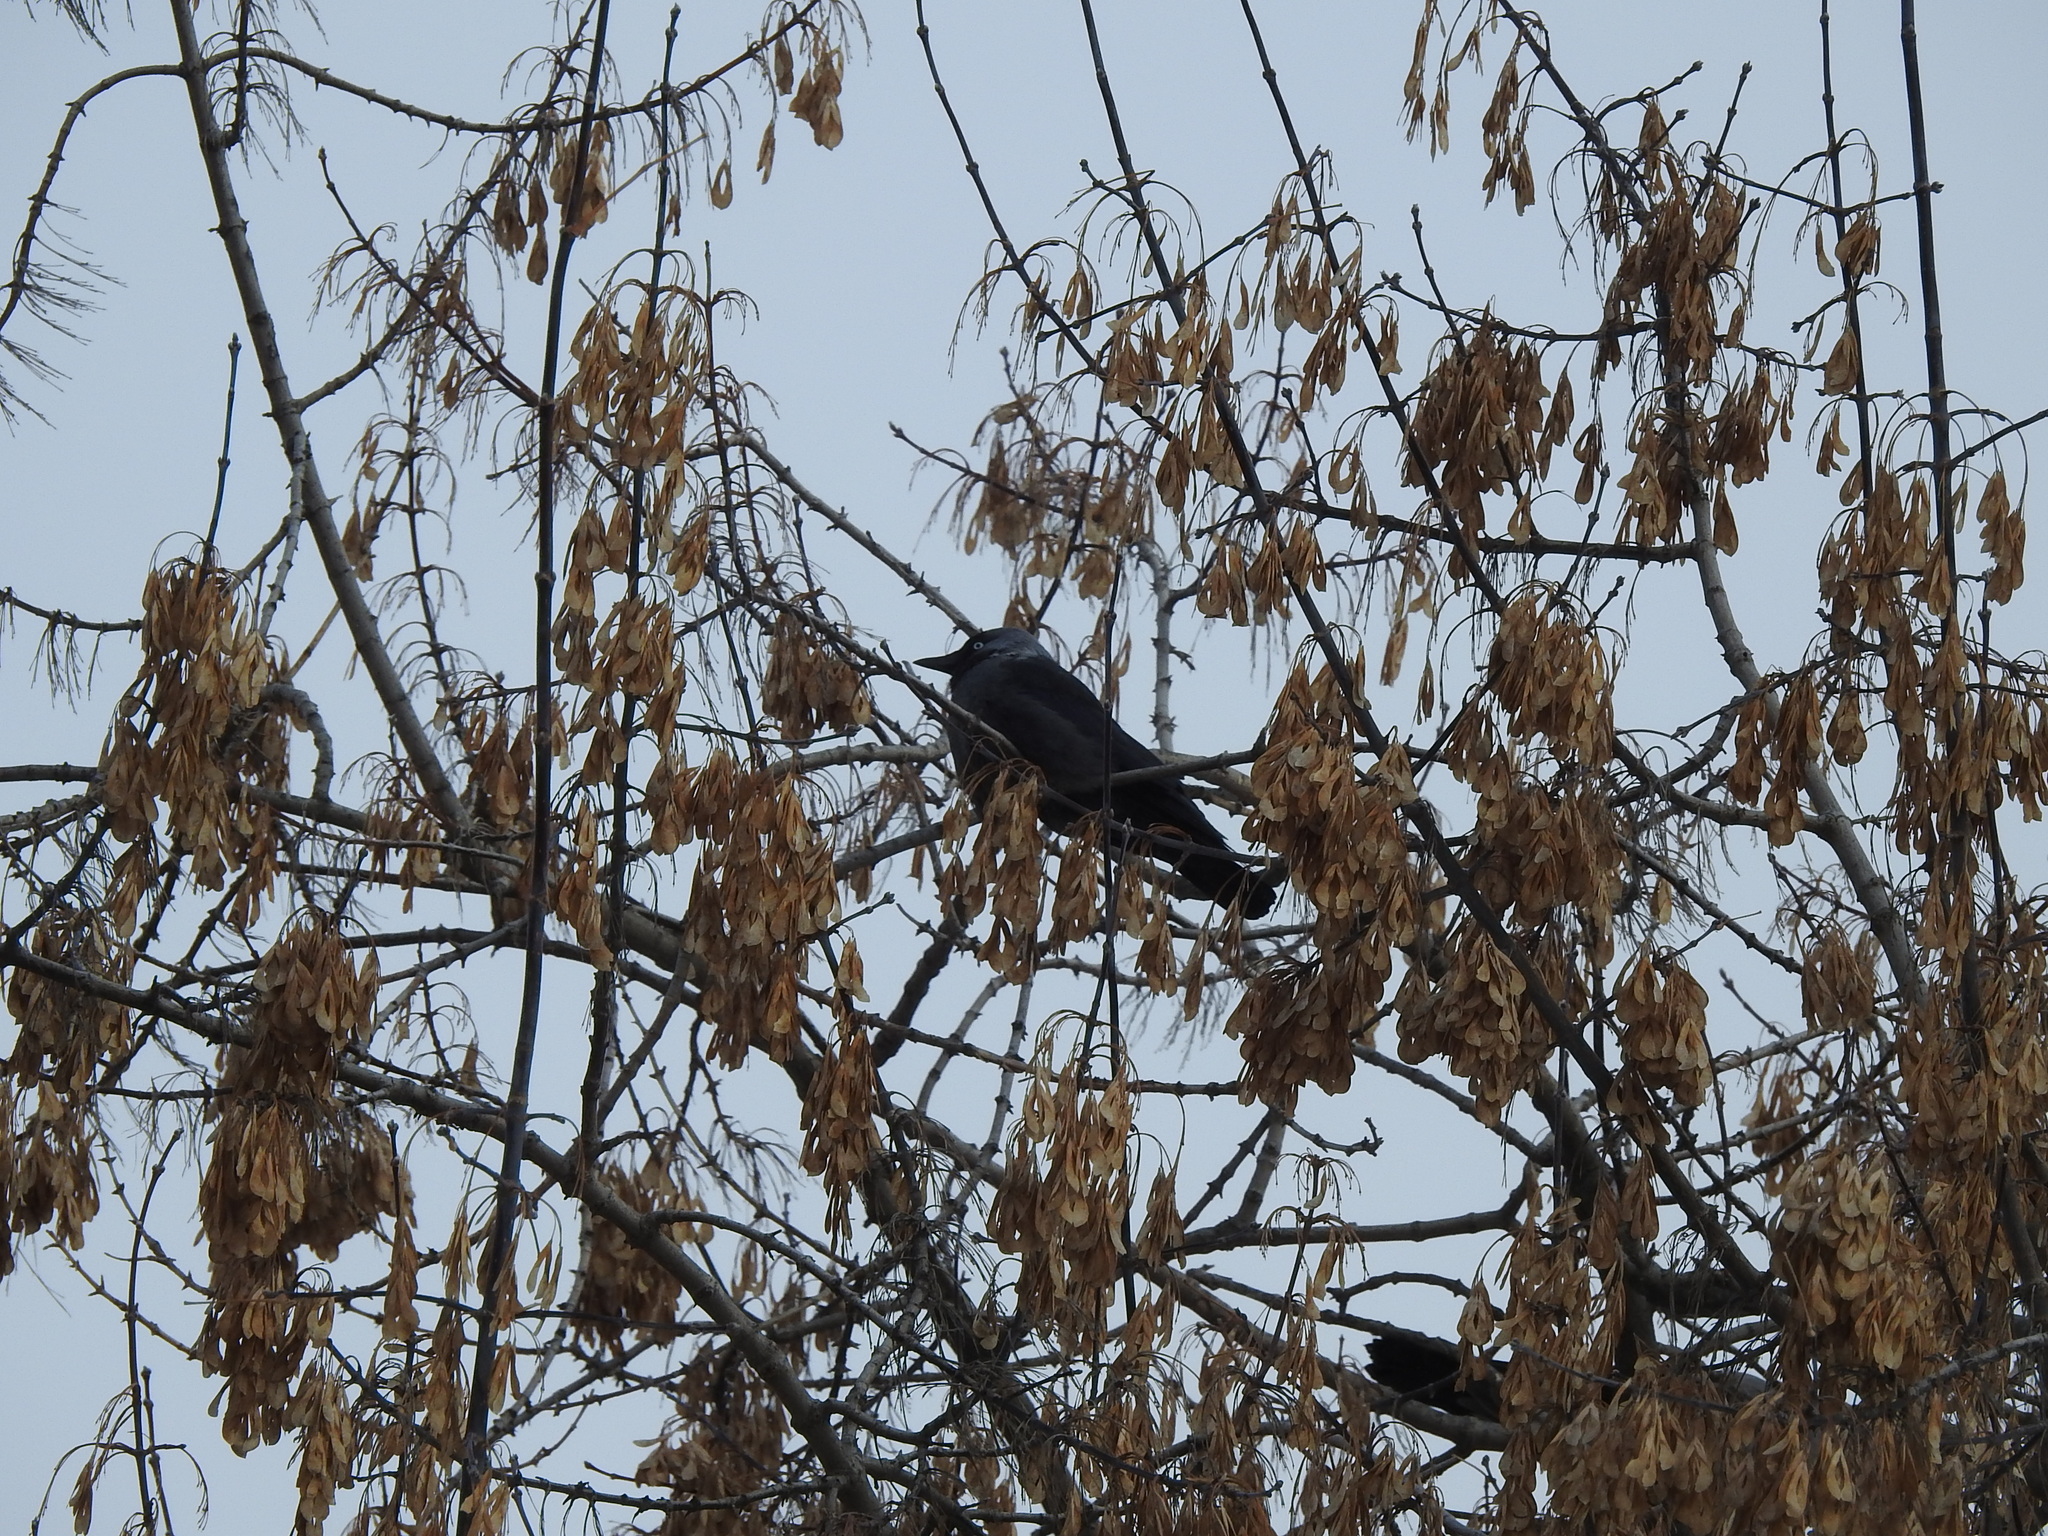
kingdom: Animalia
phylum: Chordata
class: Aves
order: Passeriformes
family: Corvidae
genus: Coloeus
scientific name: Coloeus monedula
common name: Western jackdaw
